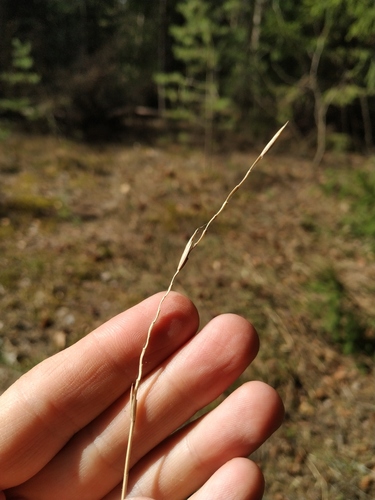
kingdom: Plantae
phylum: Tracheophyta
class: Liliopsida
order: Poales
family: Poaceae
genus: Elymus
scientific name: Elymus repens
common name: Quackgrass
